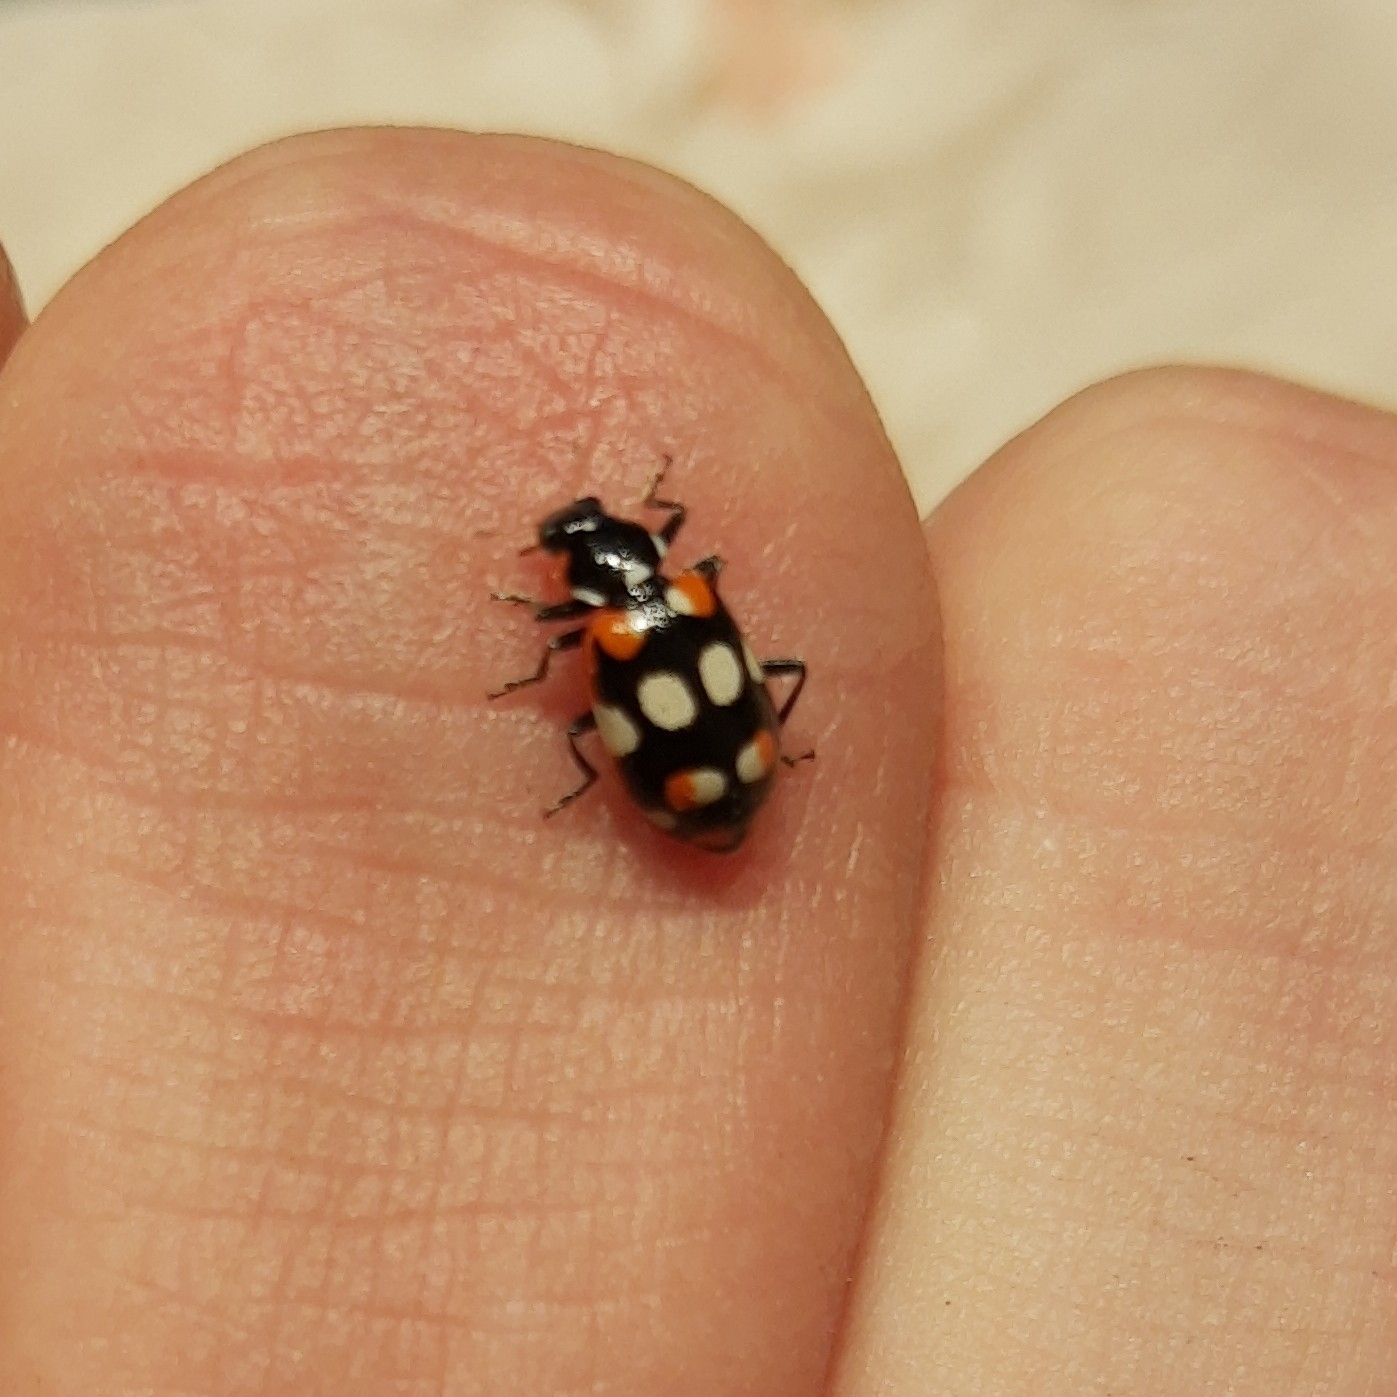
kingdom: Animalia
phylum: Arthropoda
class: Insecta
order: Coleoptera
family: Coccinellidae
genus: Eriopis
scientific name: Eriopis connexa
